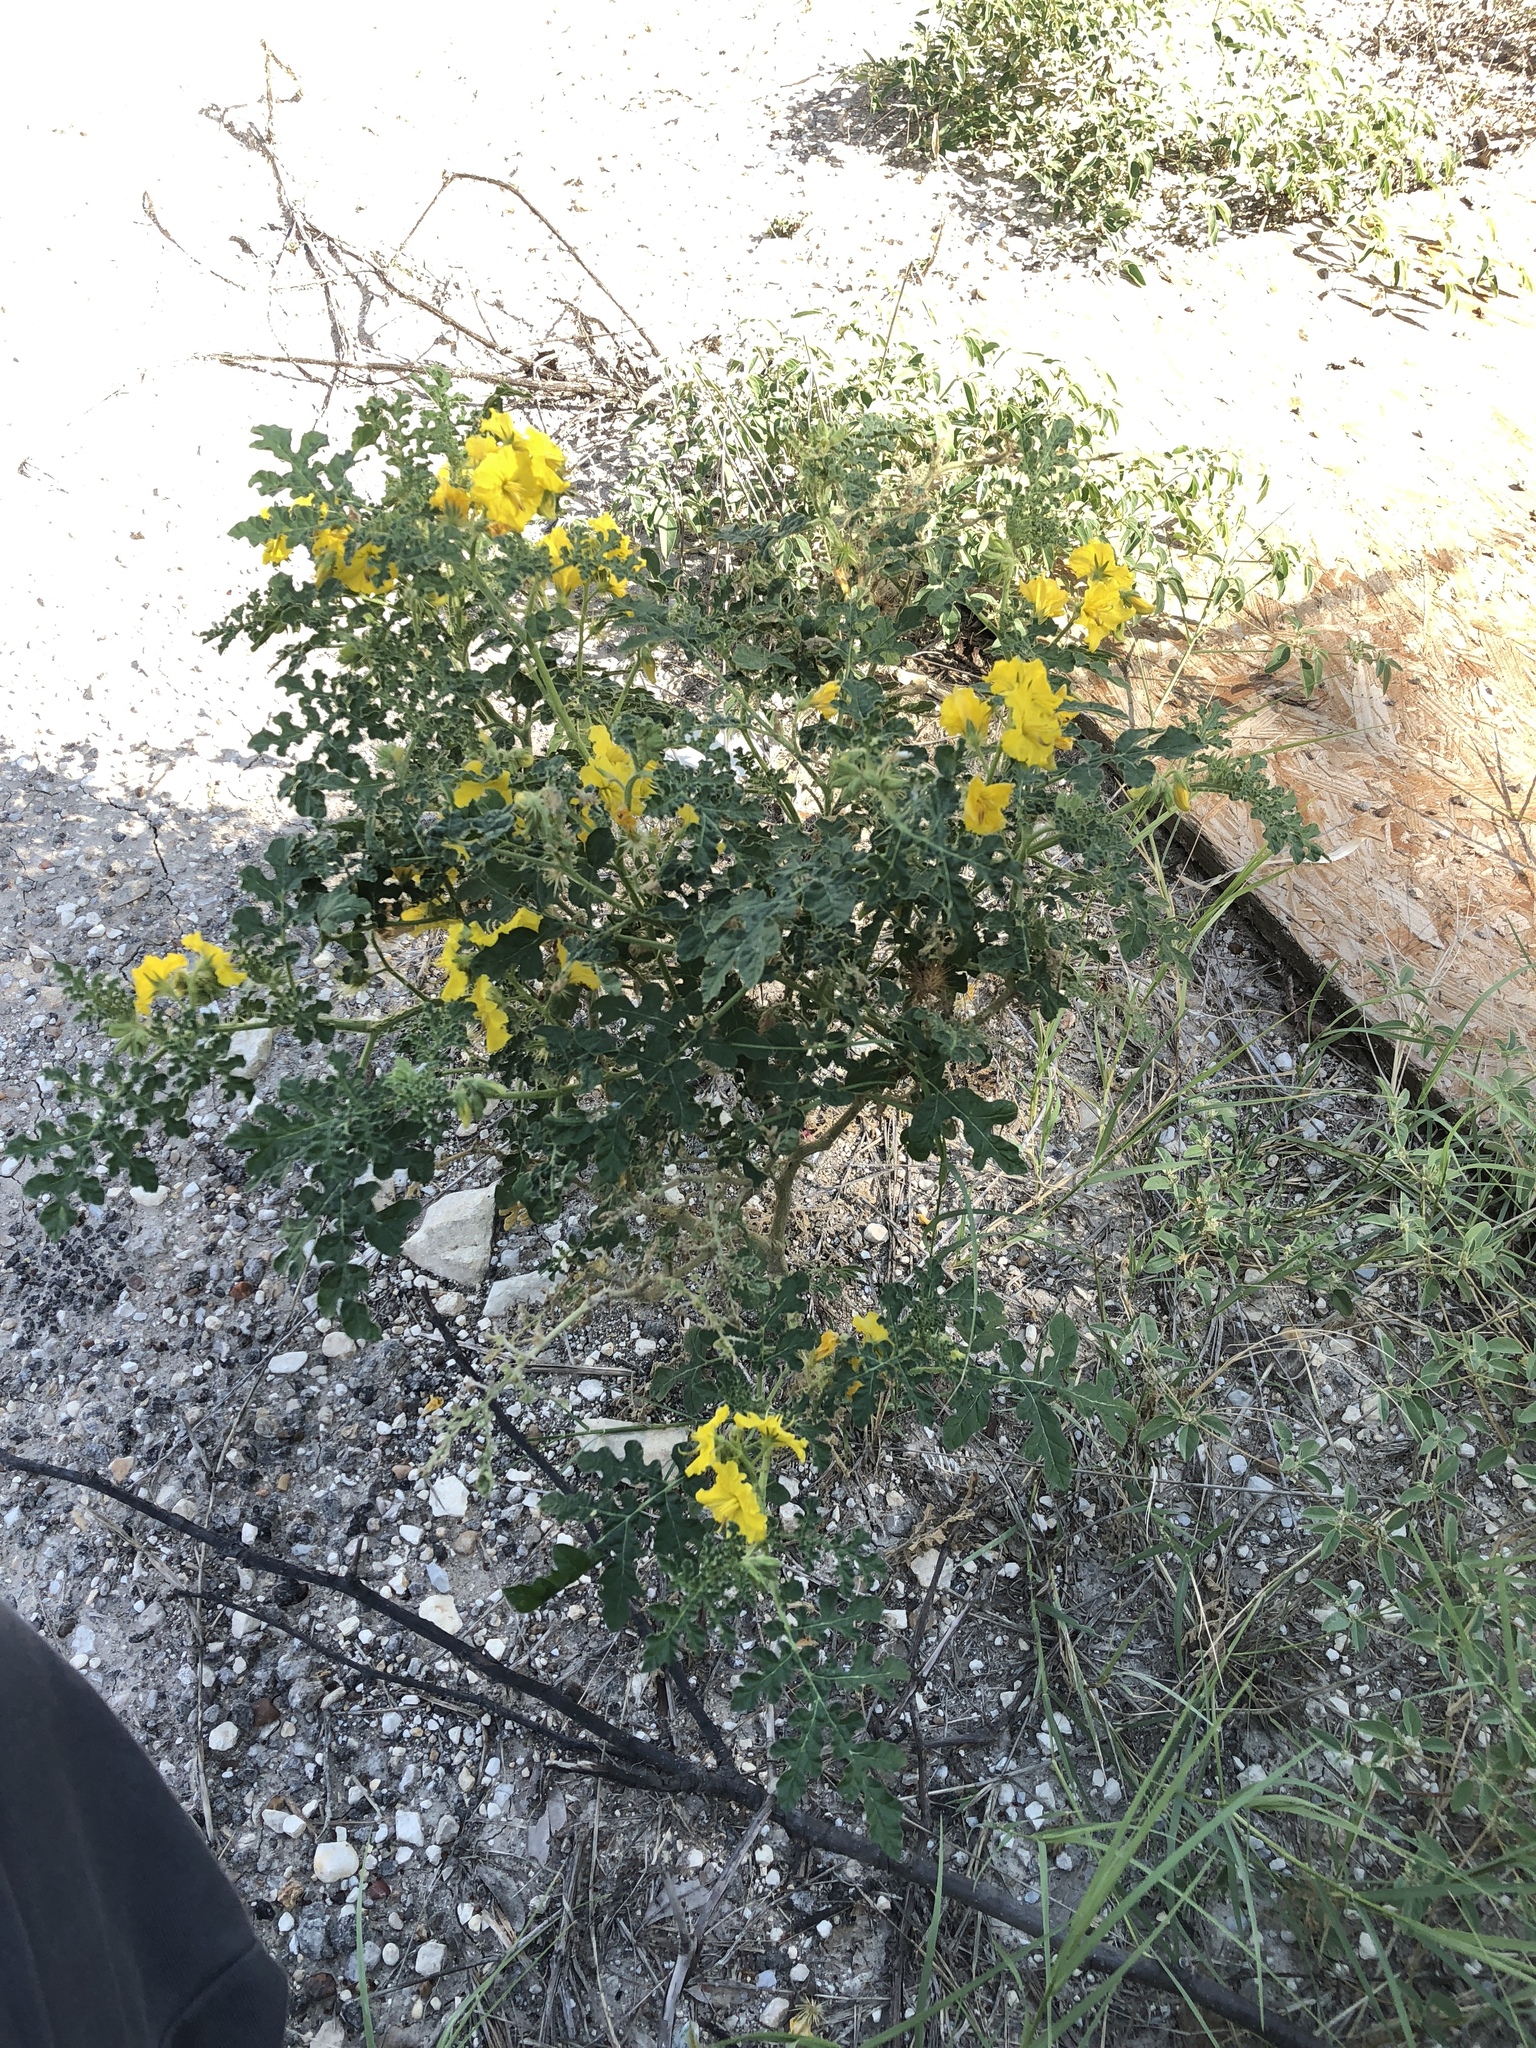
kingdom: Plantae
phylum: Tracheophyta
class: Magnoliopsida
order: Solanales
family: Solanaceae
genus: Solanum
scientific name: Solanum angustifolium
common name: Buffalobur nightshade
